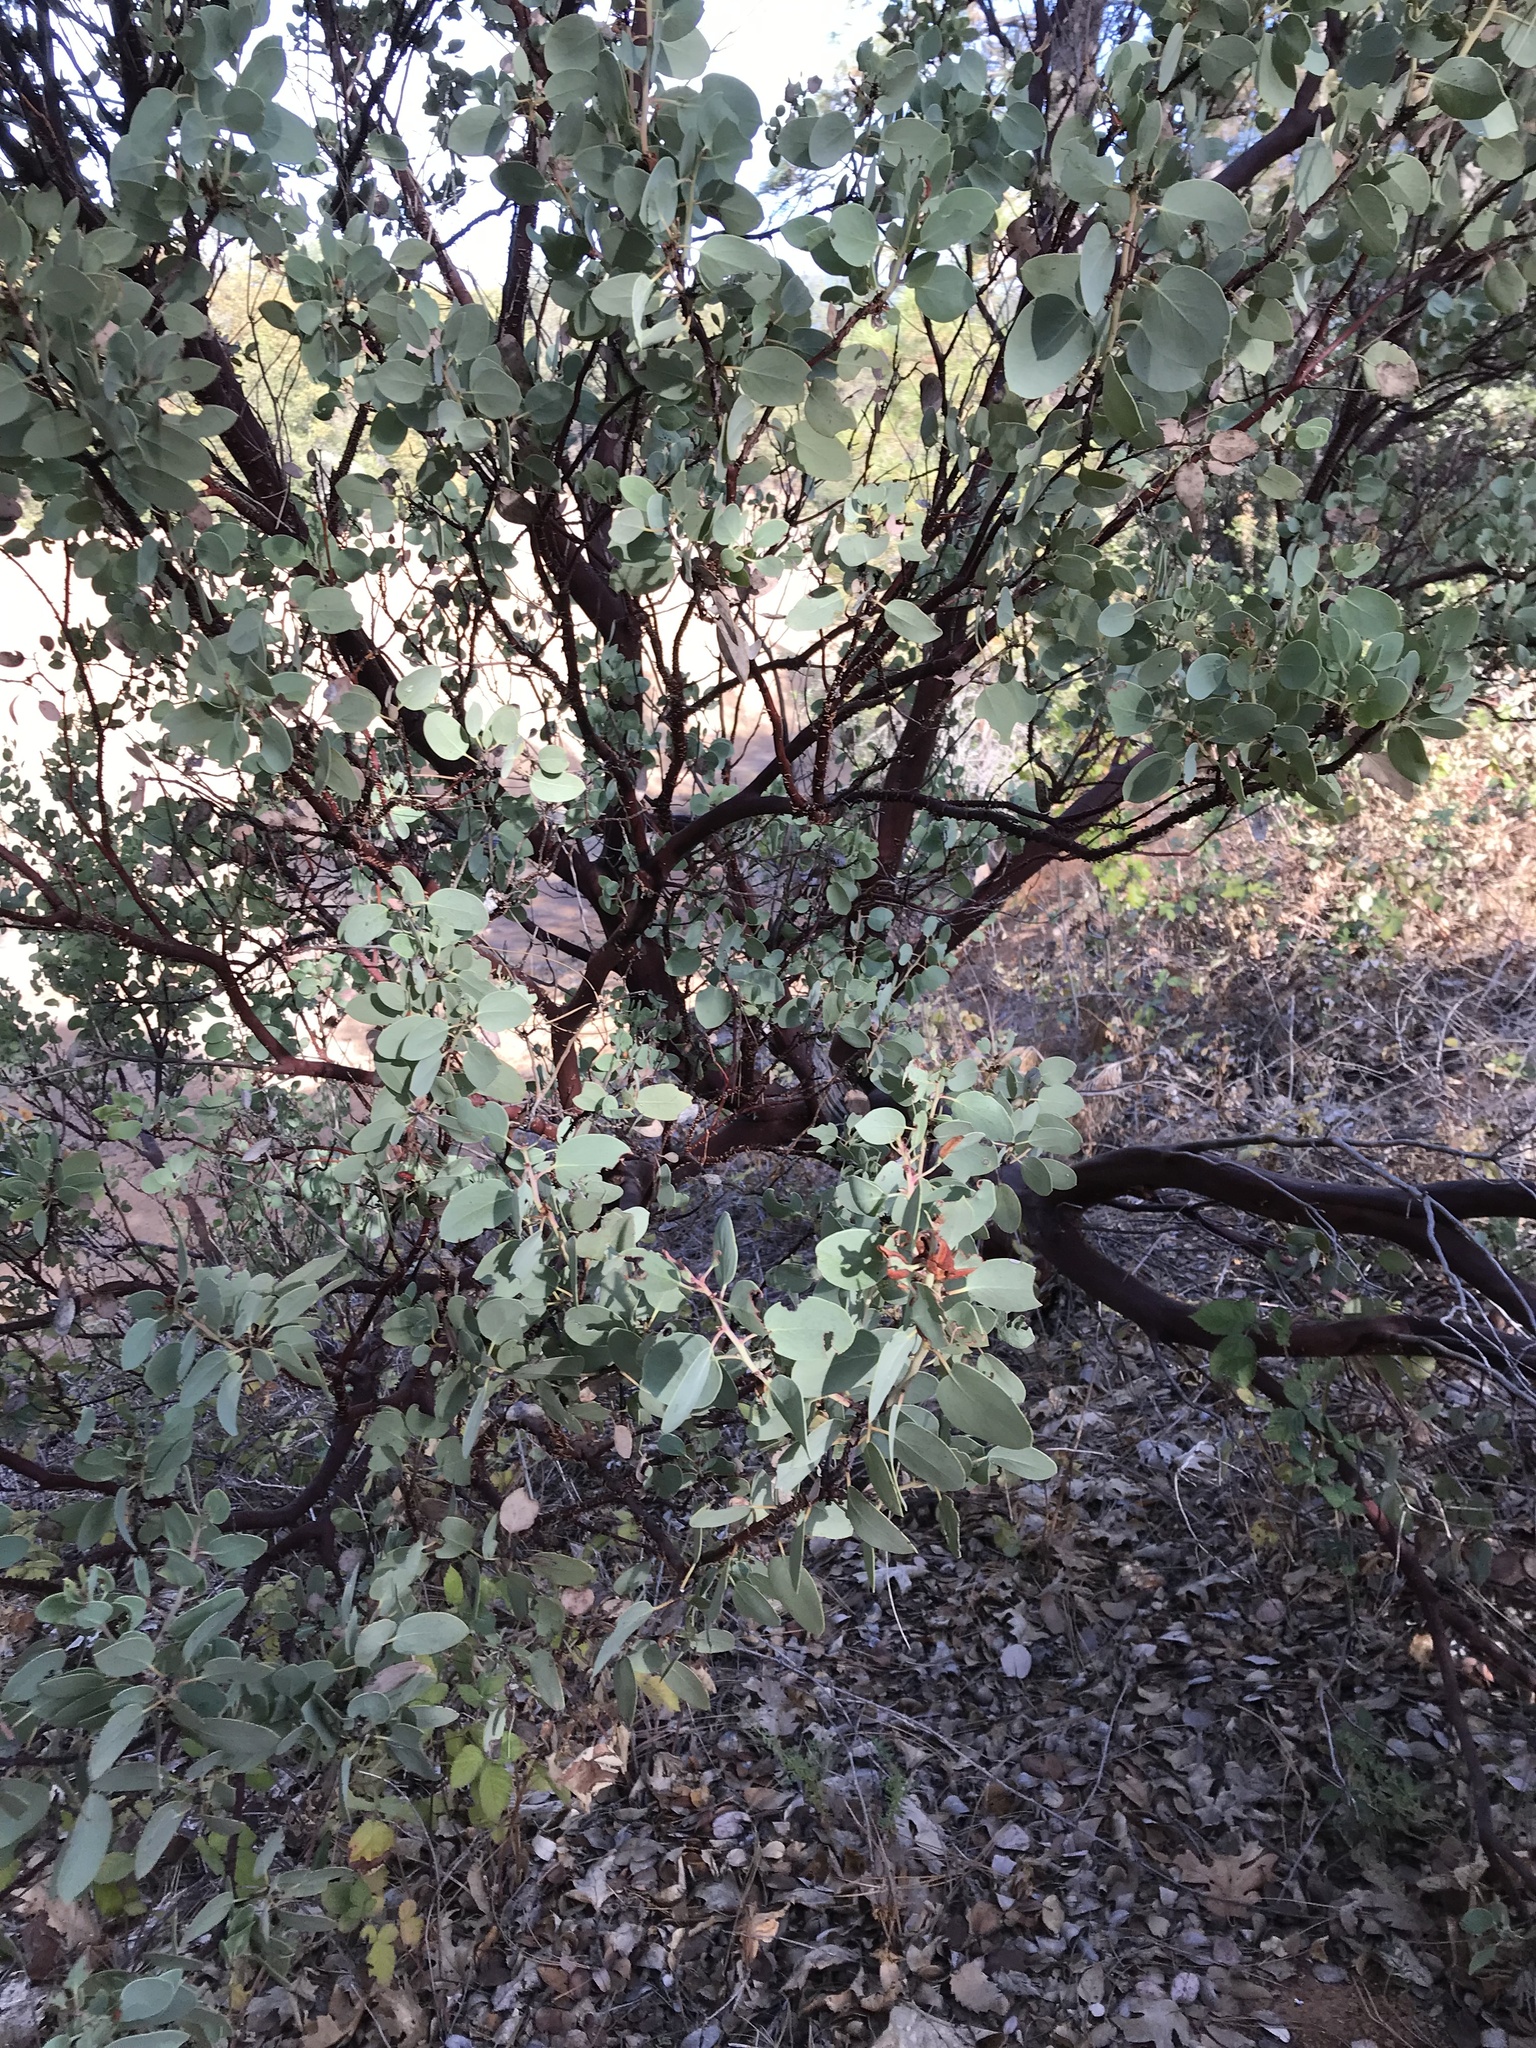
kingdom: Plantae
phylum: Tracheophyta
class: Magnoliopsida
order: Ericales
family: Ericaceae
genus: Arctostaphylos
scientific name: Arctostaphylos viscida
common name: White-leaf manzanita
